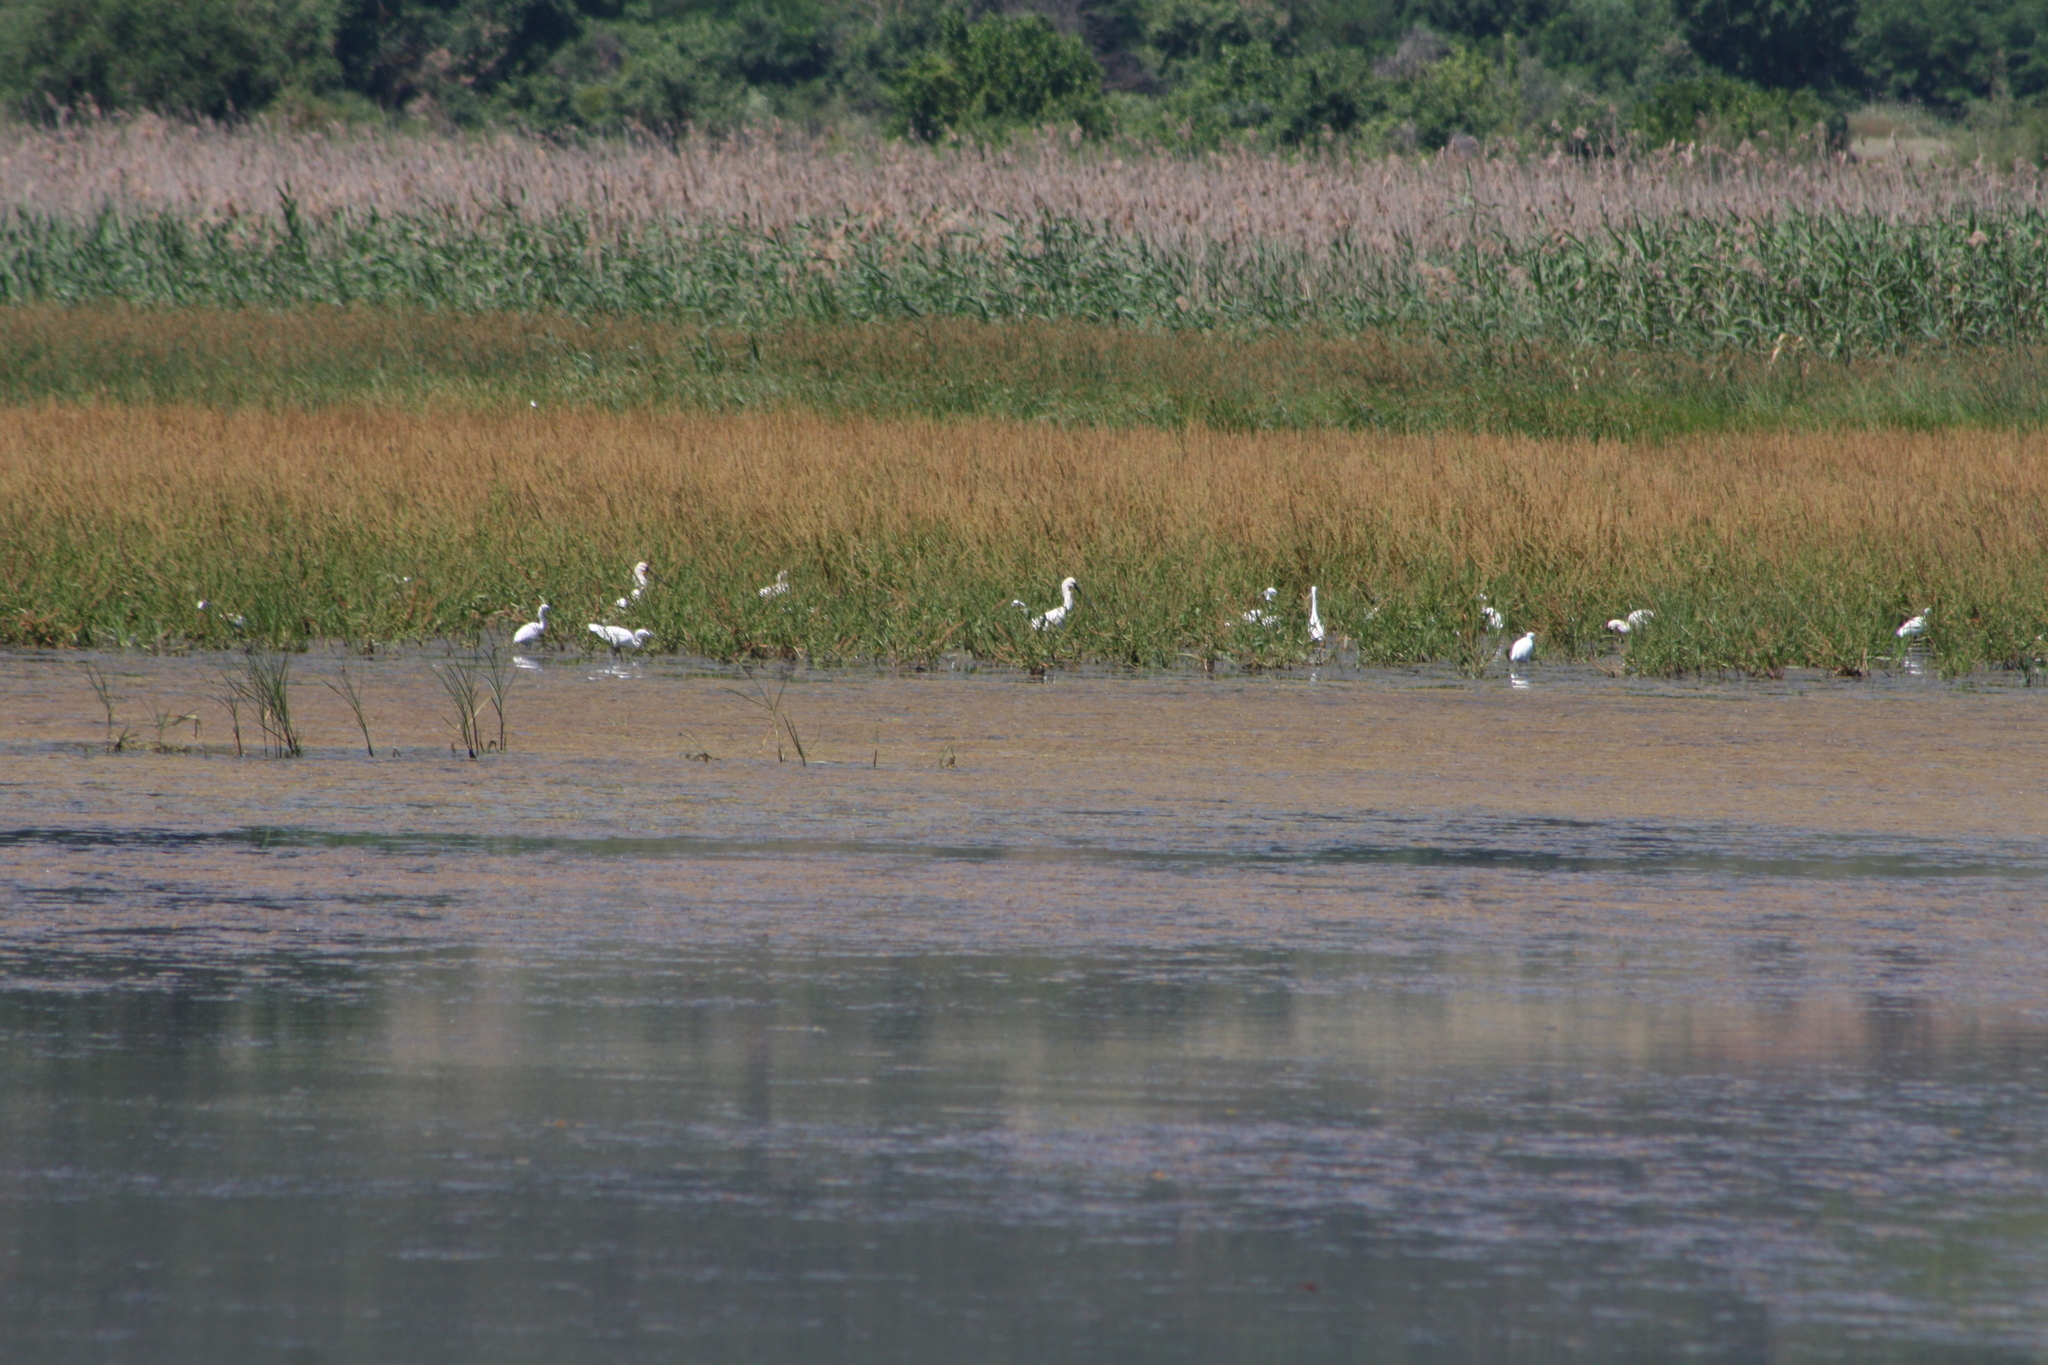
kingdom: Animalia
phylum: Chordata
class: Aves
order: Pelecaniformes
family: Ardeidae
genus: Egretta
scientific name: Egretta garzetta
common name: Little egret
